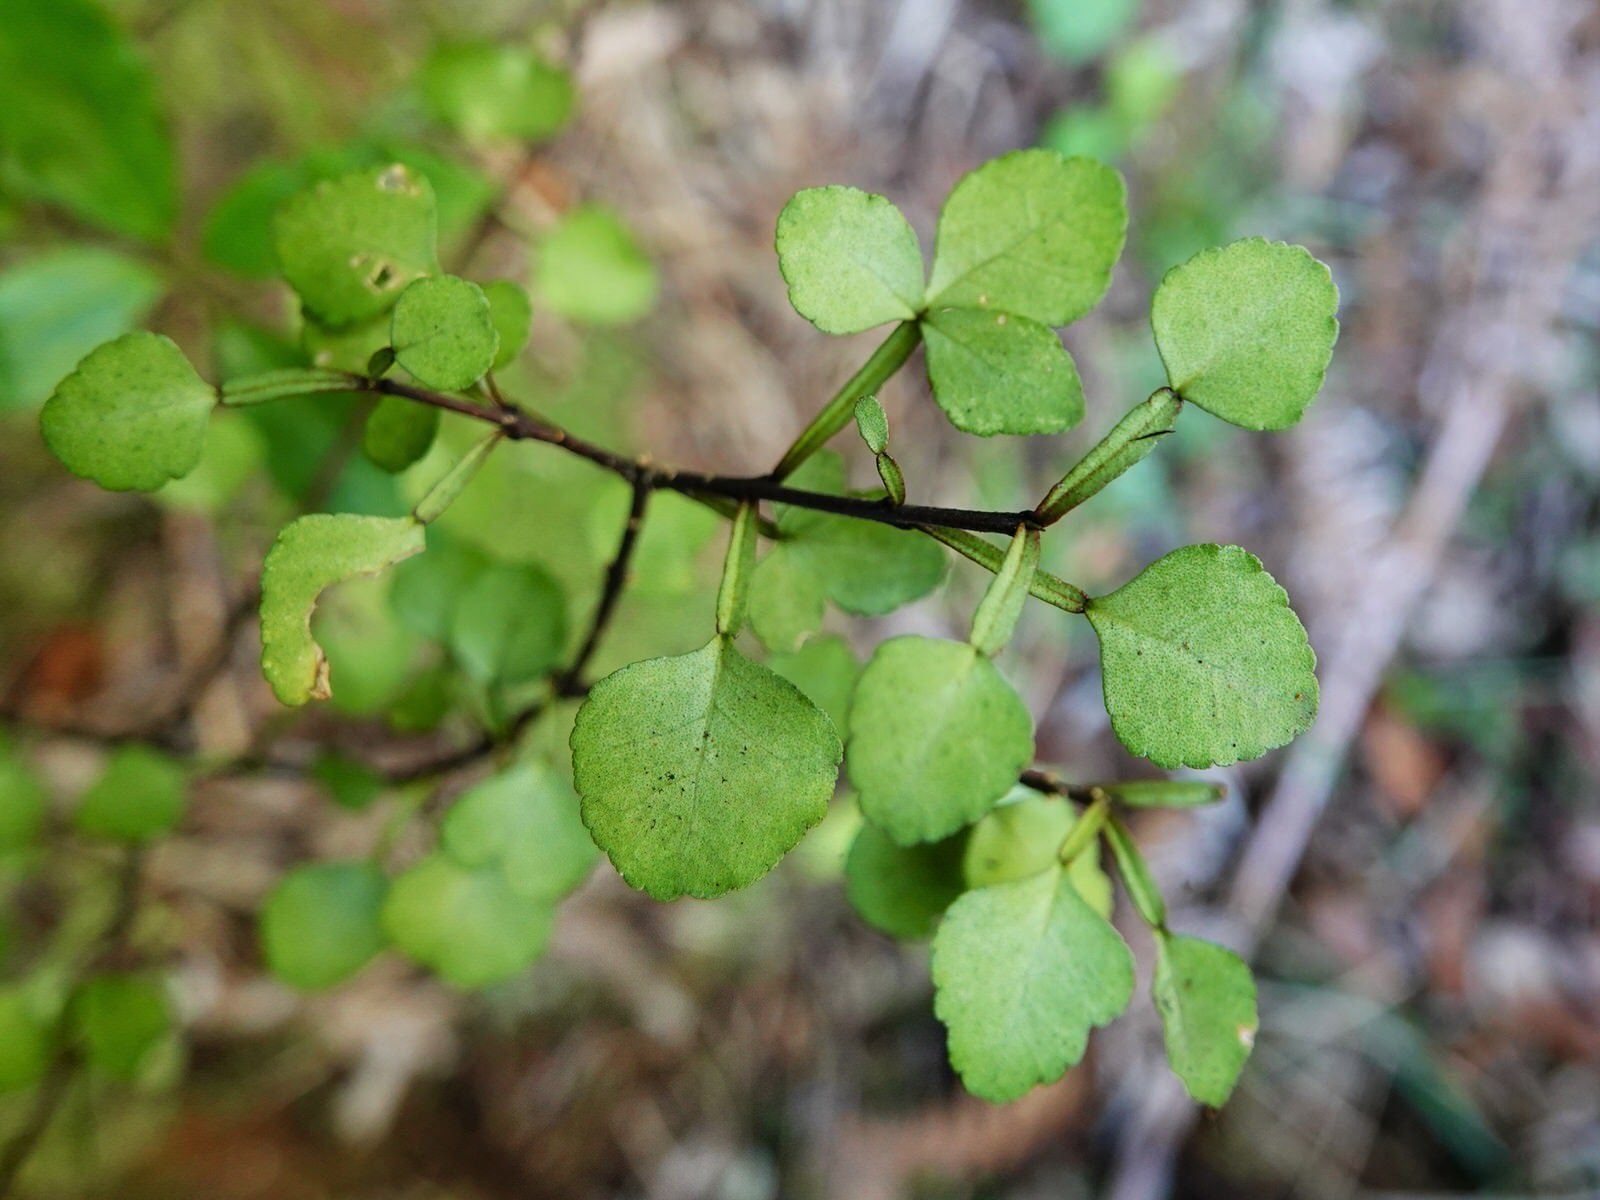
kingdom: Plantae
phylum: Tracheophyta
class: Magnoliopsida
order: Sapindales
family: Rutaceae
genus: Melicope
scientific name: Melicope simplex
